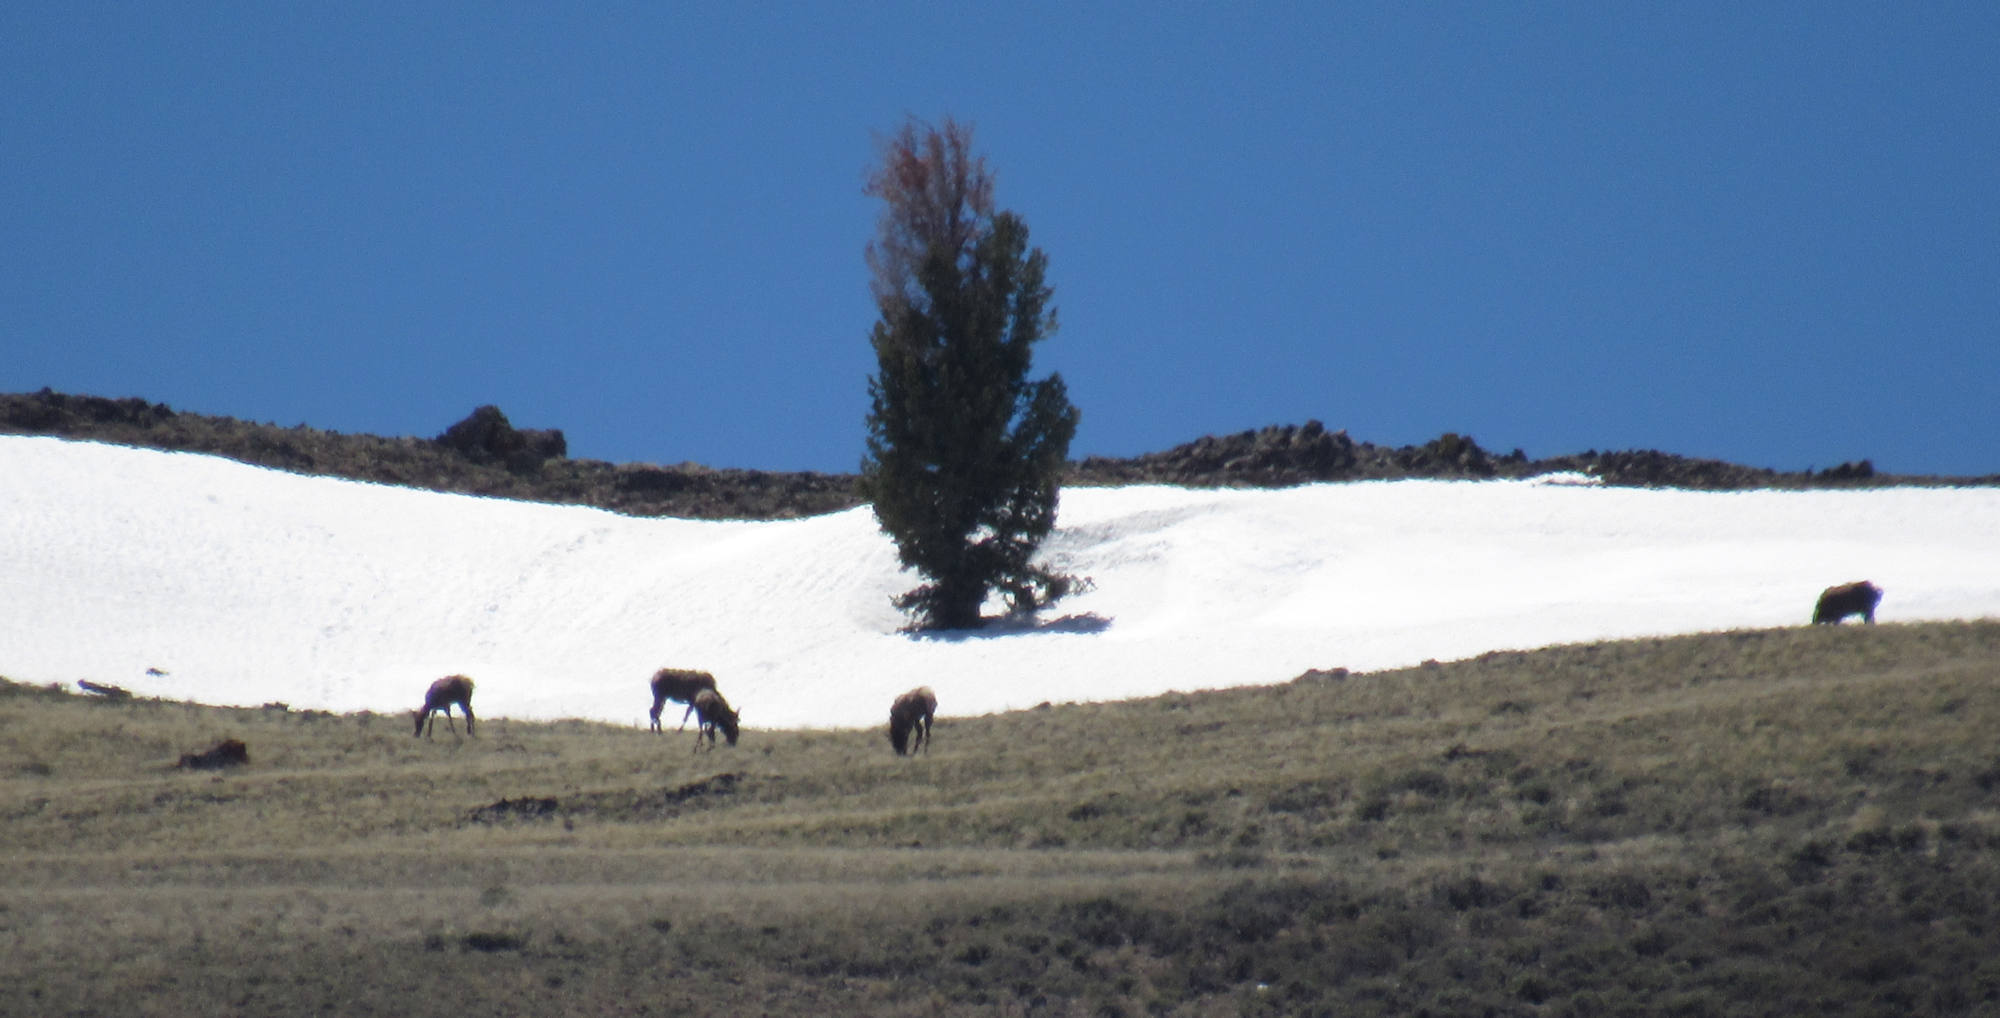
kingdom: Animalia
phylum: Chordata
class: Mammalia
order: Artiodactyla
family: Cervidae
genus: Cervus
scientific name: Cervus elaphus
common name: Red deer
